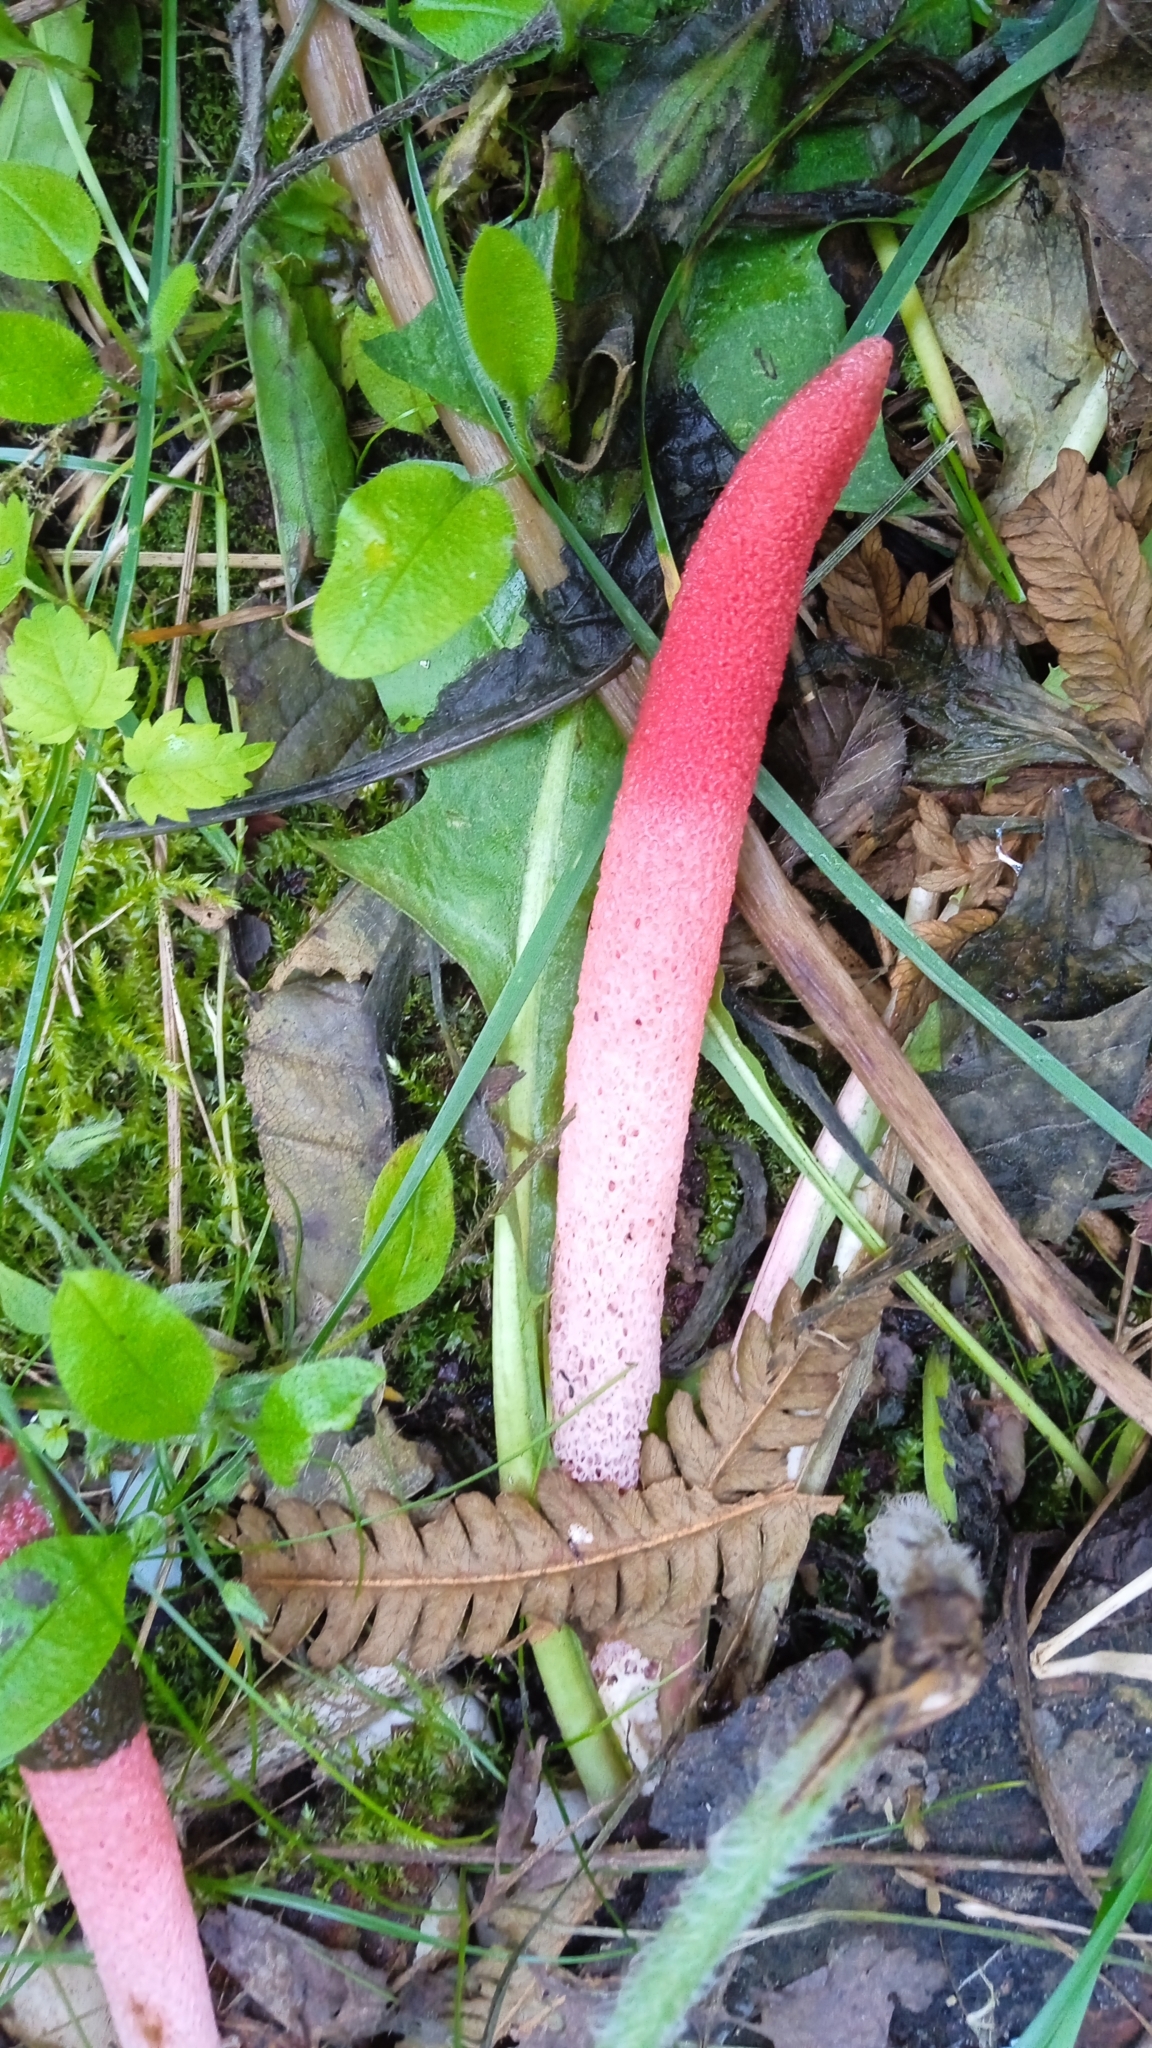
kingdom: Fungi
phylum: Basidiomycota
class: Agaricomycetes
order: Phallales
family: Phallaceae
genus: Mutinus
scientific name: Mutinus ravenelii
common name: Red stinkhorn
